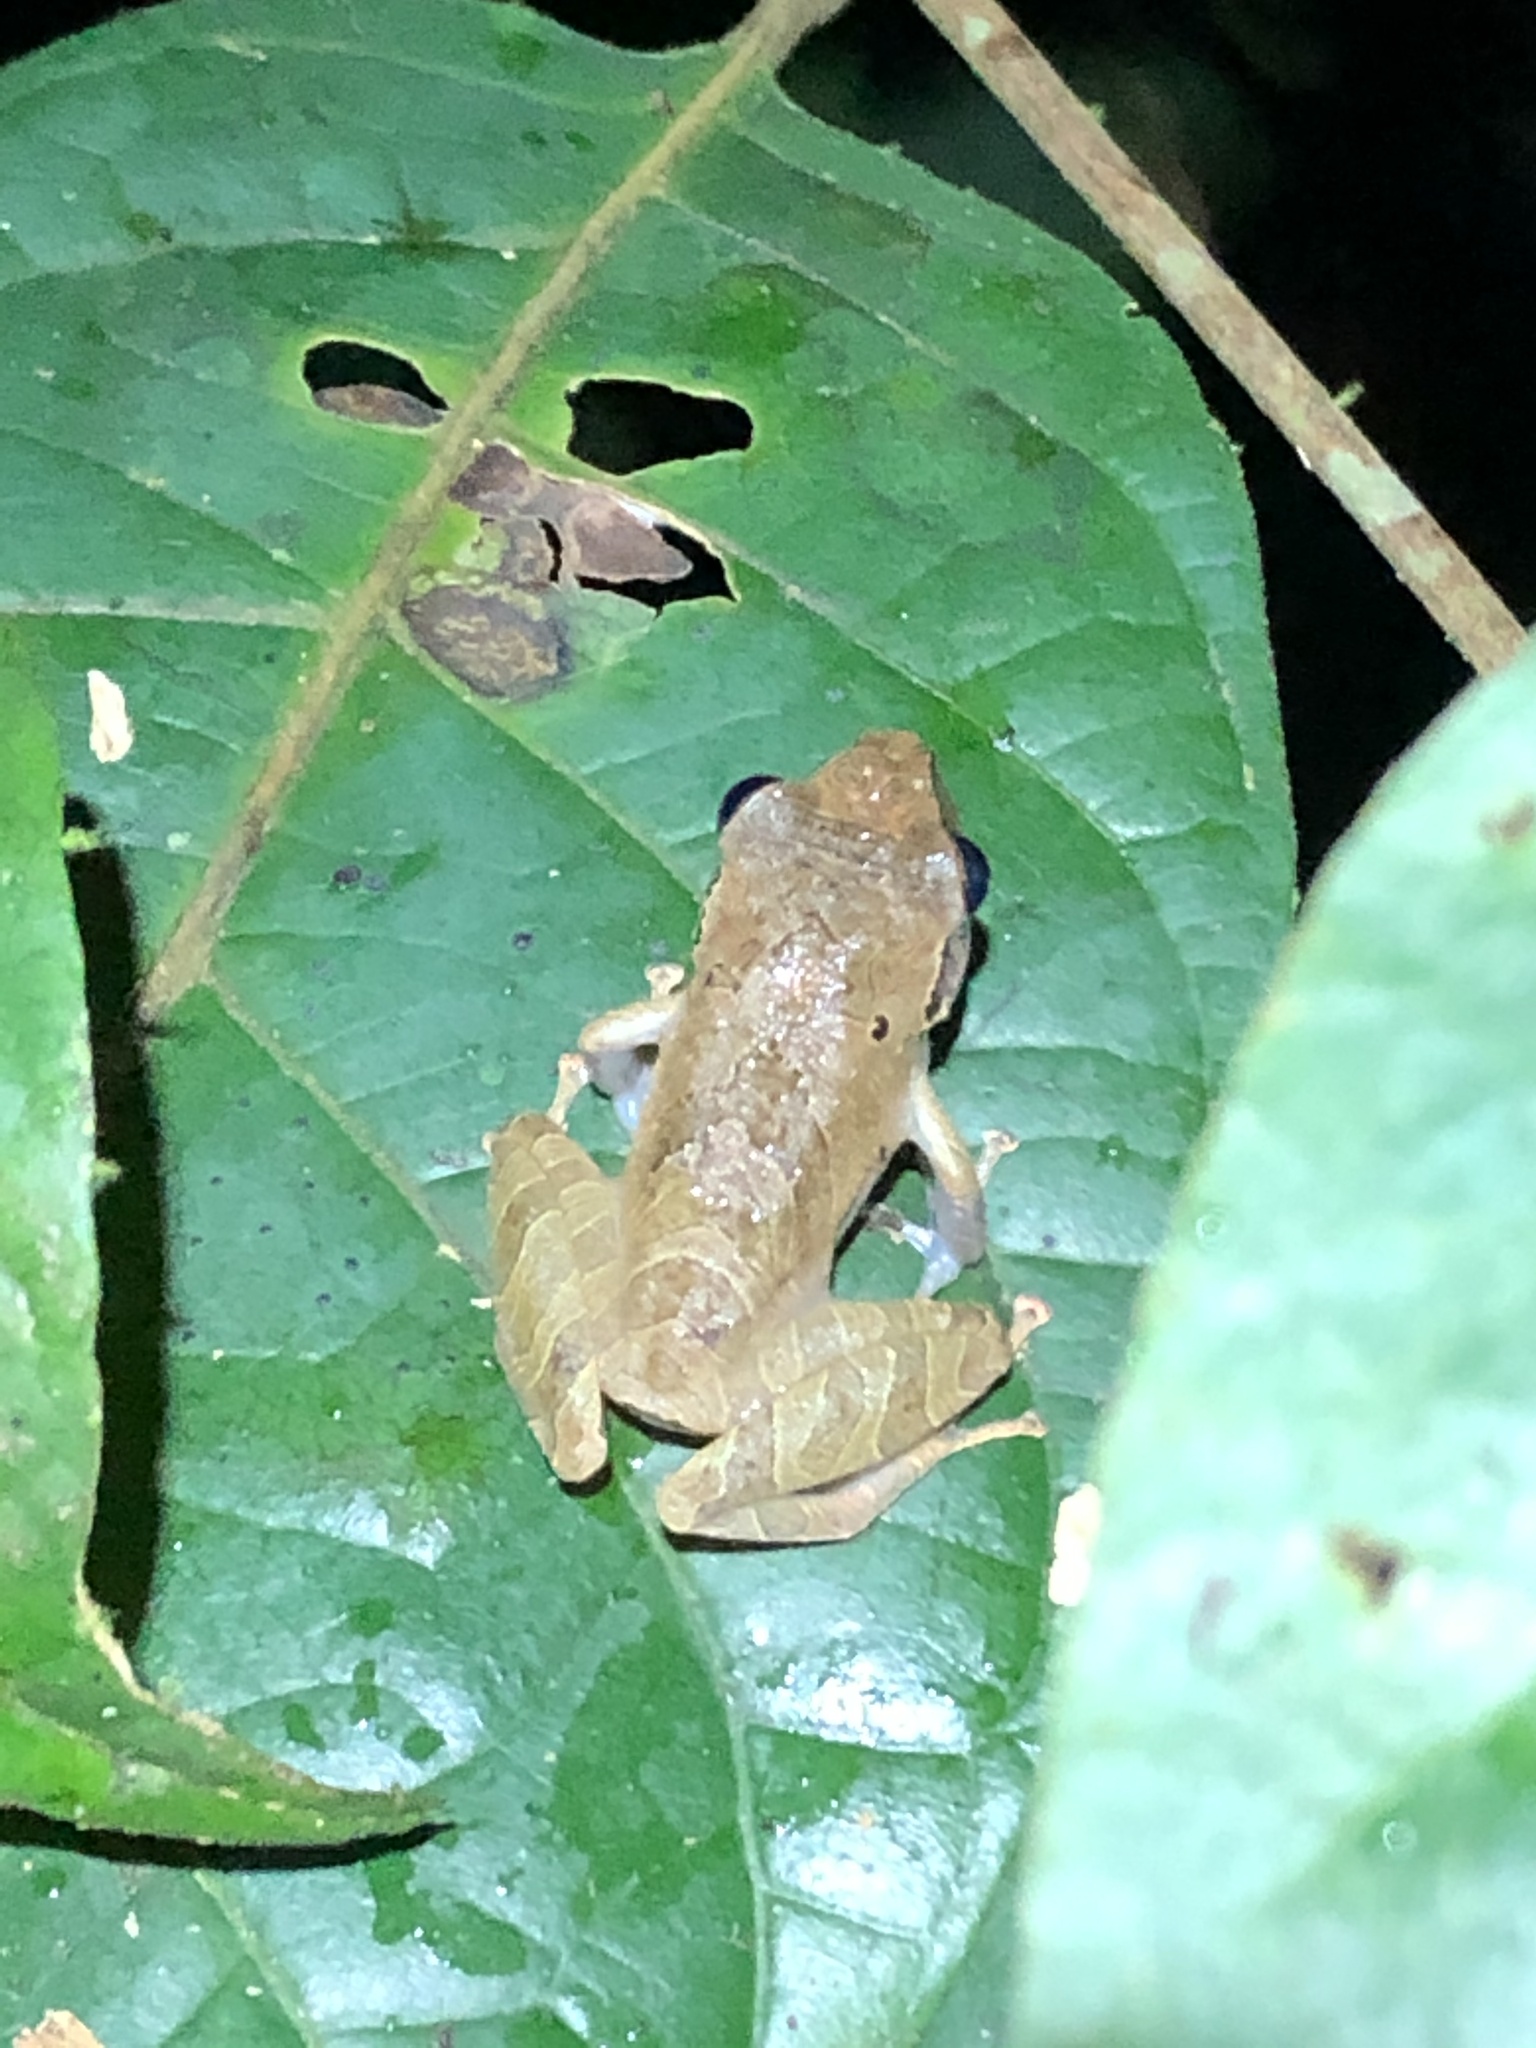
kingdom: Animalia
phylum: Chordata
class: Amphibia
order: Anura
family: Craugastoridae
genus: Pristimantis
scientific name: Pristimantis reichlei
